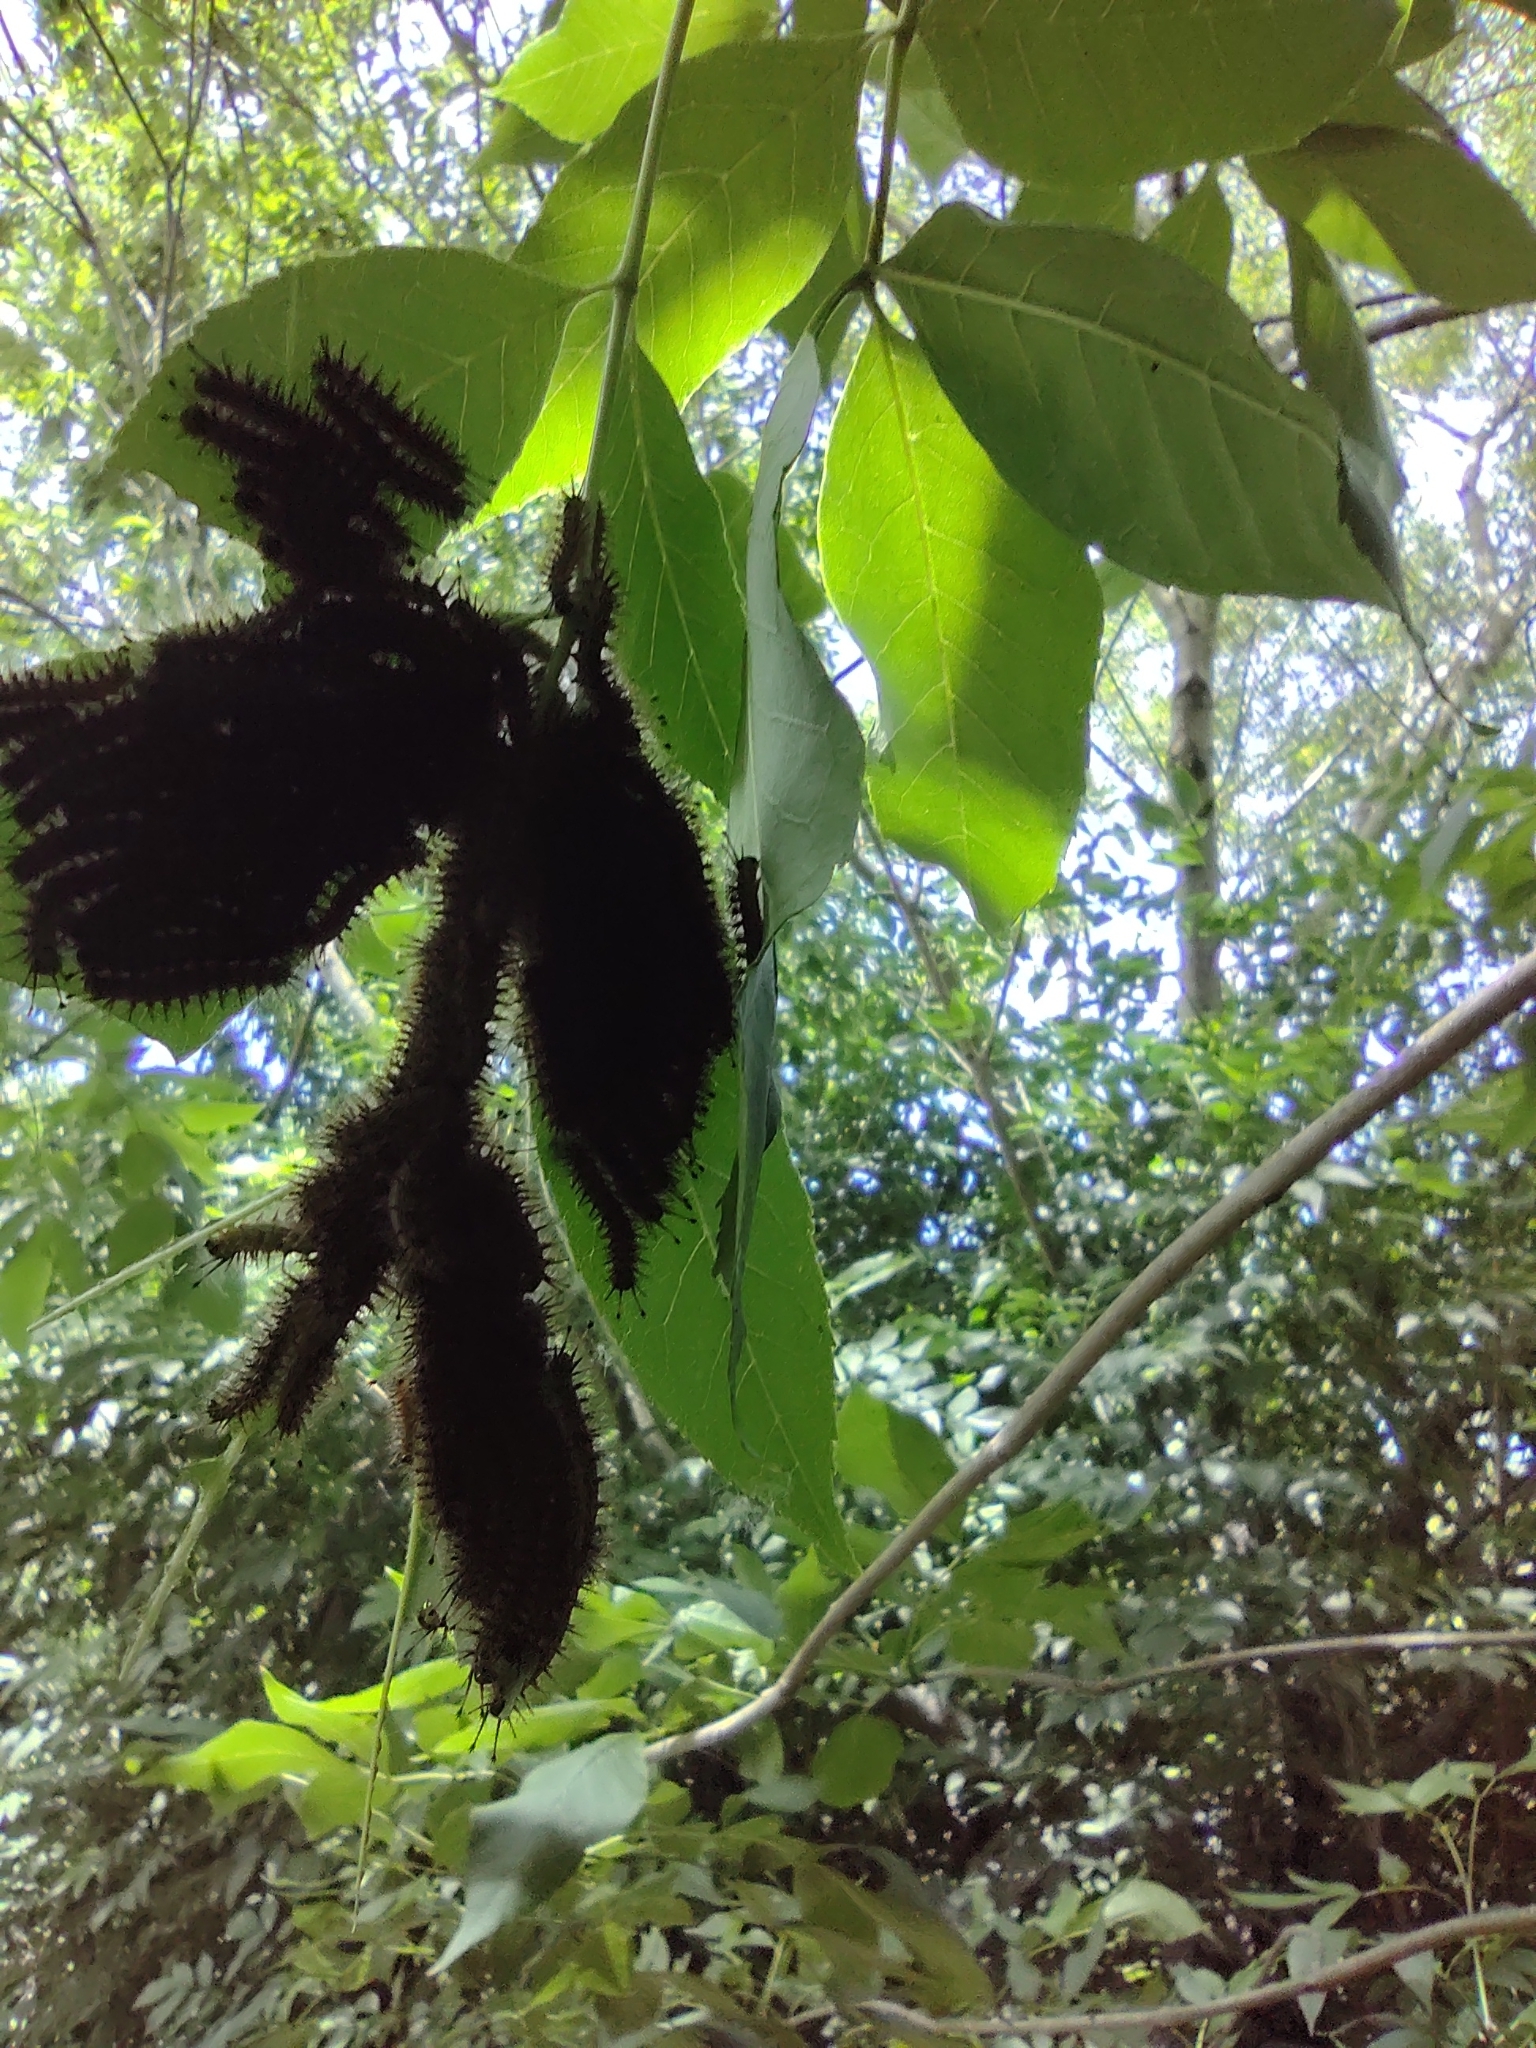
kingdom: Animalia
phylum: Arthropoda
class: Insecta
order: Lepidoptera
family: Saturniidae
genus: Hylesia
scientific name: Hylesia nigricans
